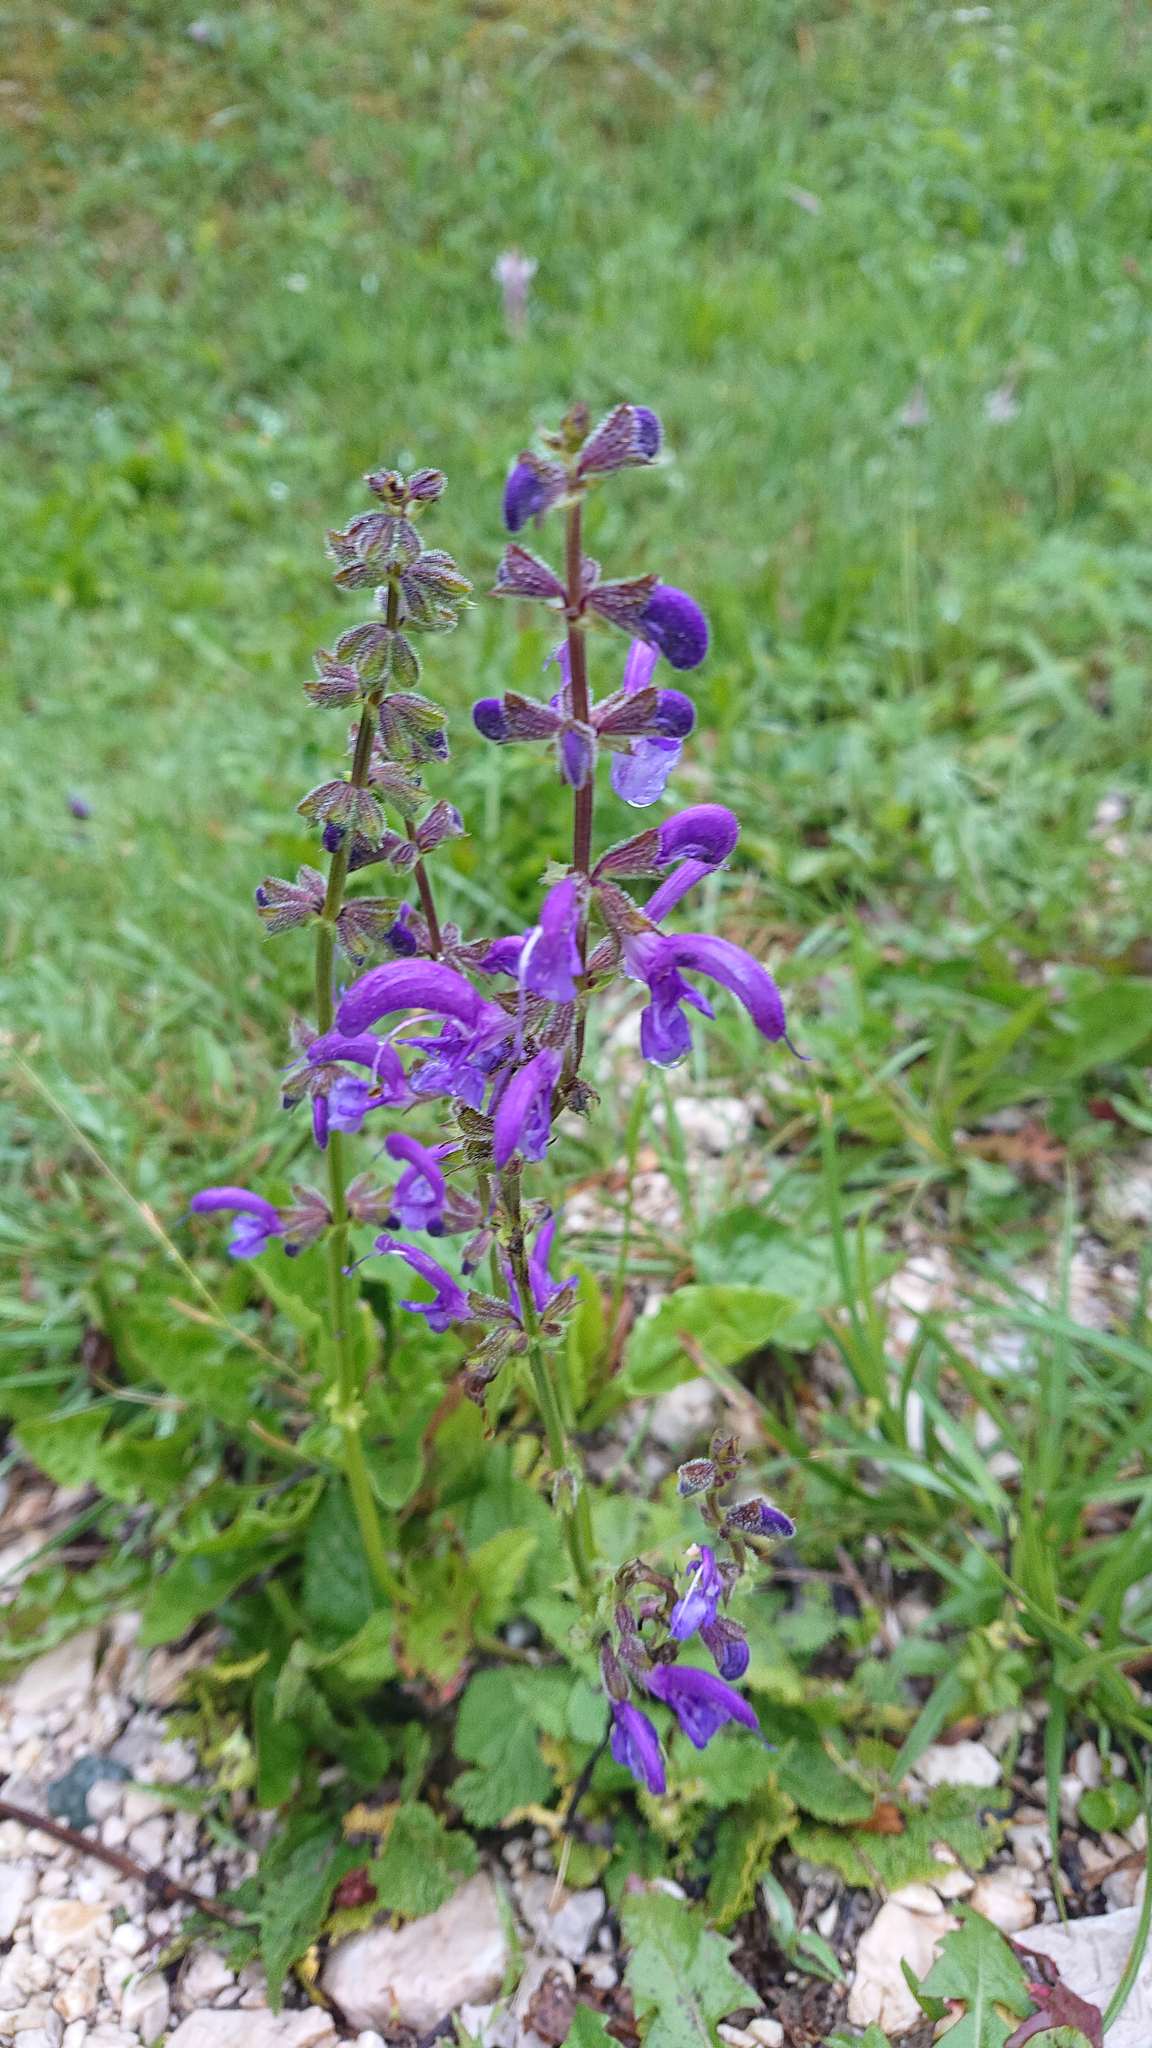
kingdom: Plantae
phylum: Tracheophyta
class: Magnoliopsida
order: Lamiales
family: Lamiaceae
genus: Salvia
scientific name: Salvia pratensis
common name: Meadow sage
